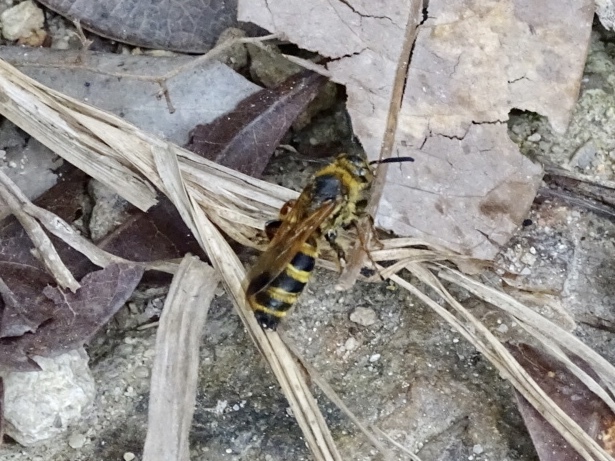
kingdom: Animalia
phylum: Arthropoda
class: Insecta
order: Hymenoptera
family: Scoliidae
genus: Campsomeris
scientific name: Campsomeris phalerata
